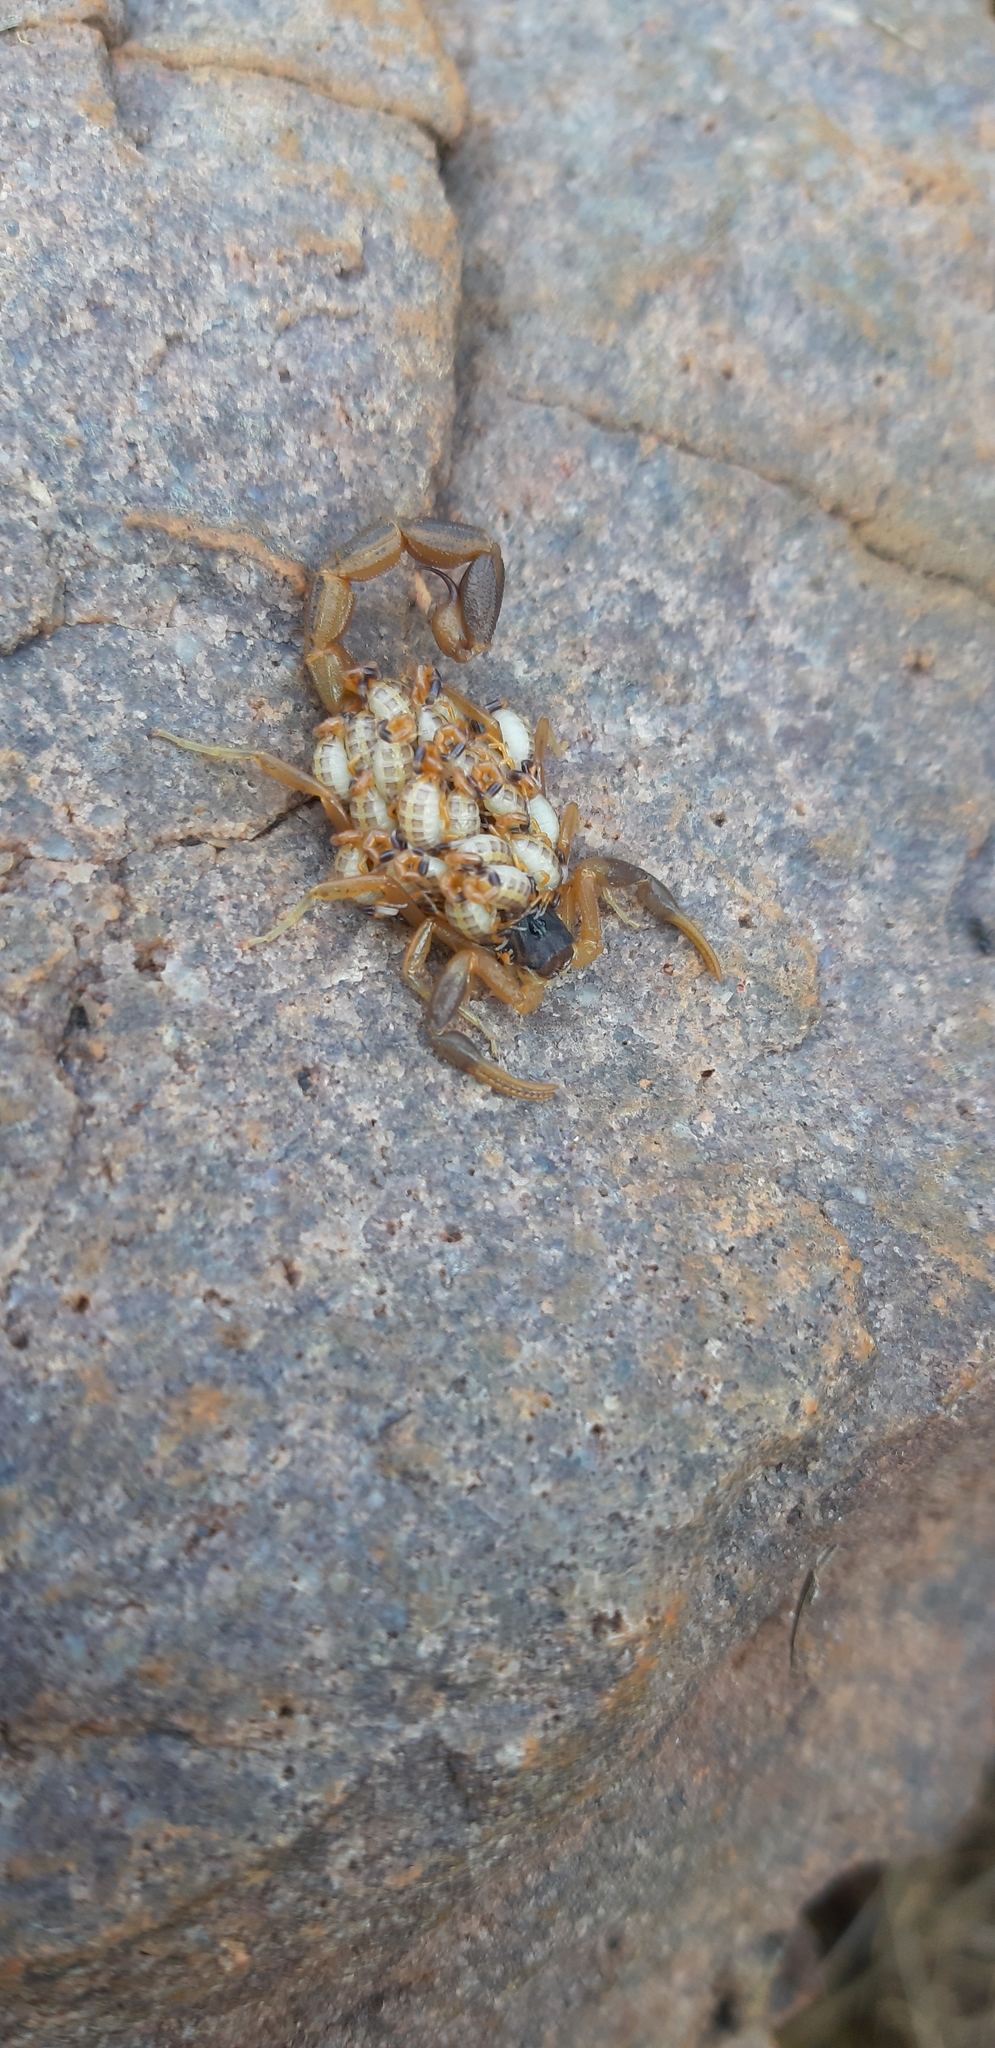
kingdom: Animalia
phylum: Arthropoda
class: Arachnida
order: Scorpiones
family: Buthidae
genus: Uroplectes
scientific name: Uroplectes triangulifer
